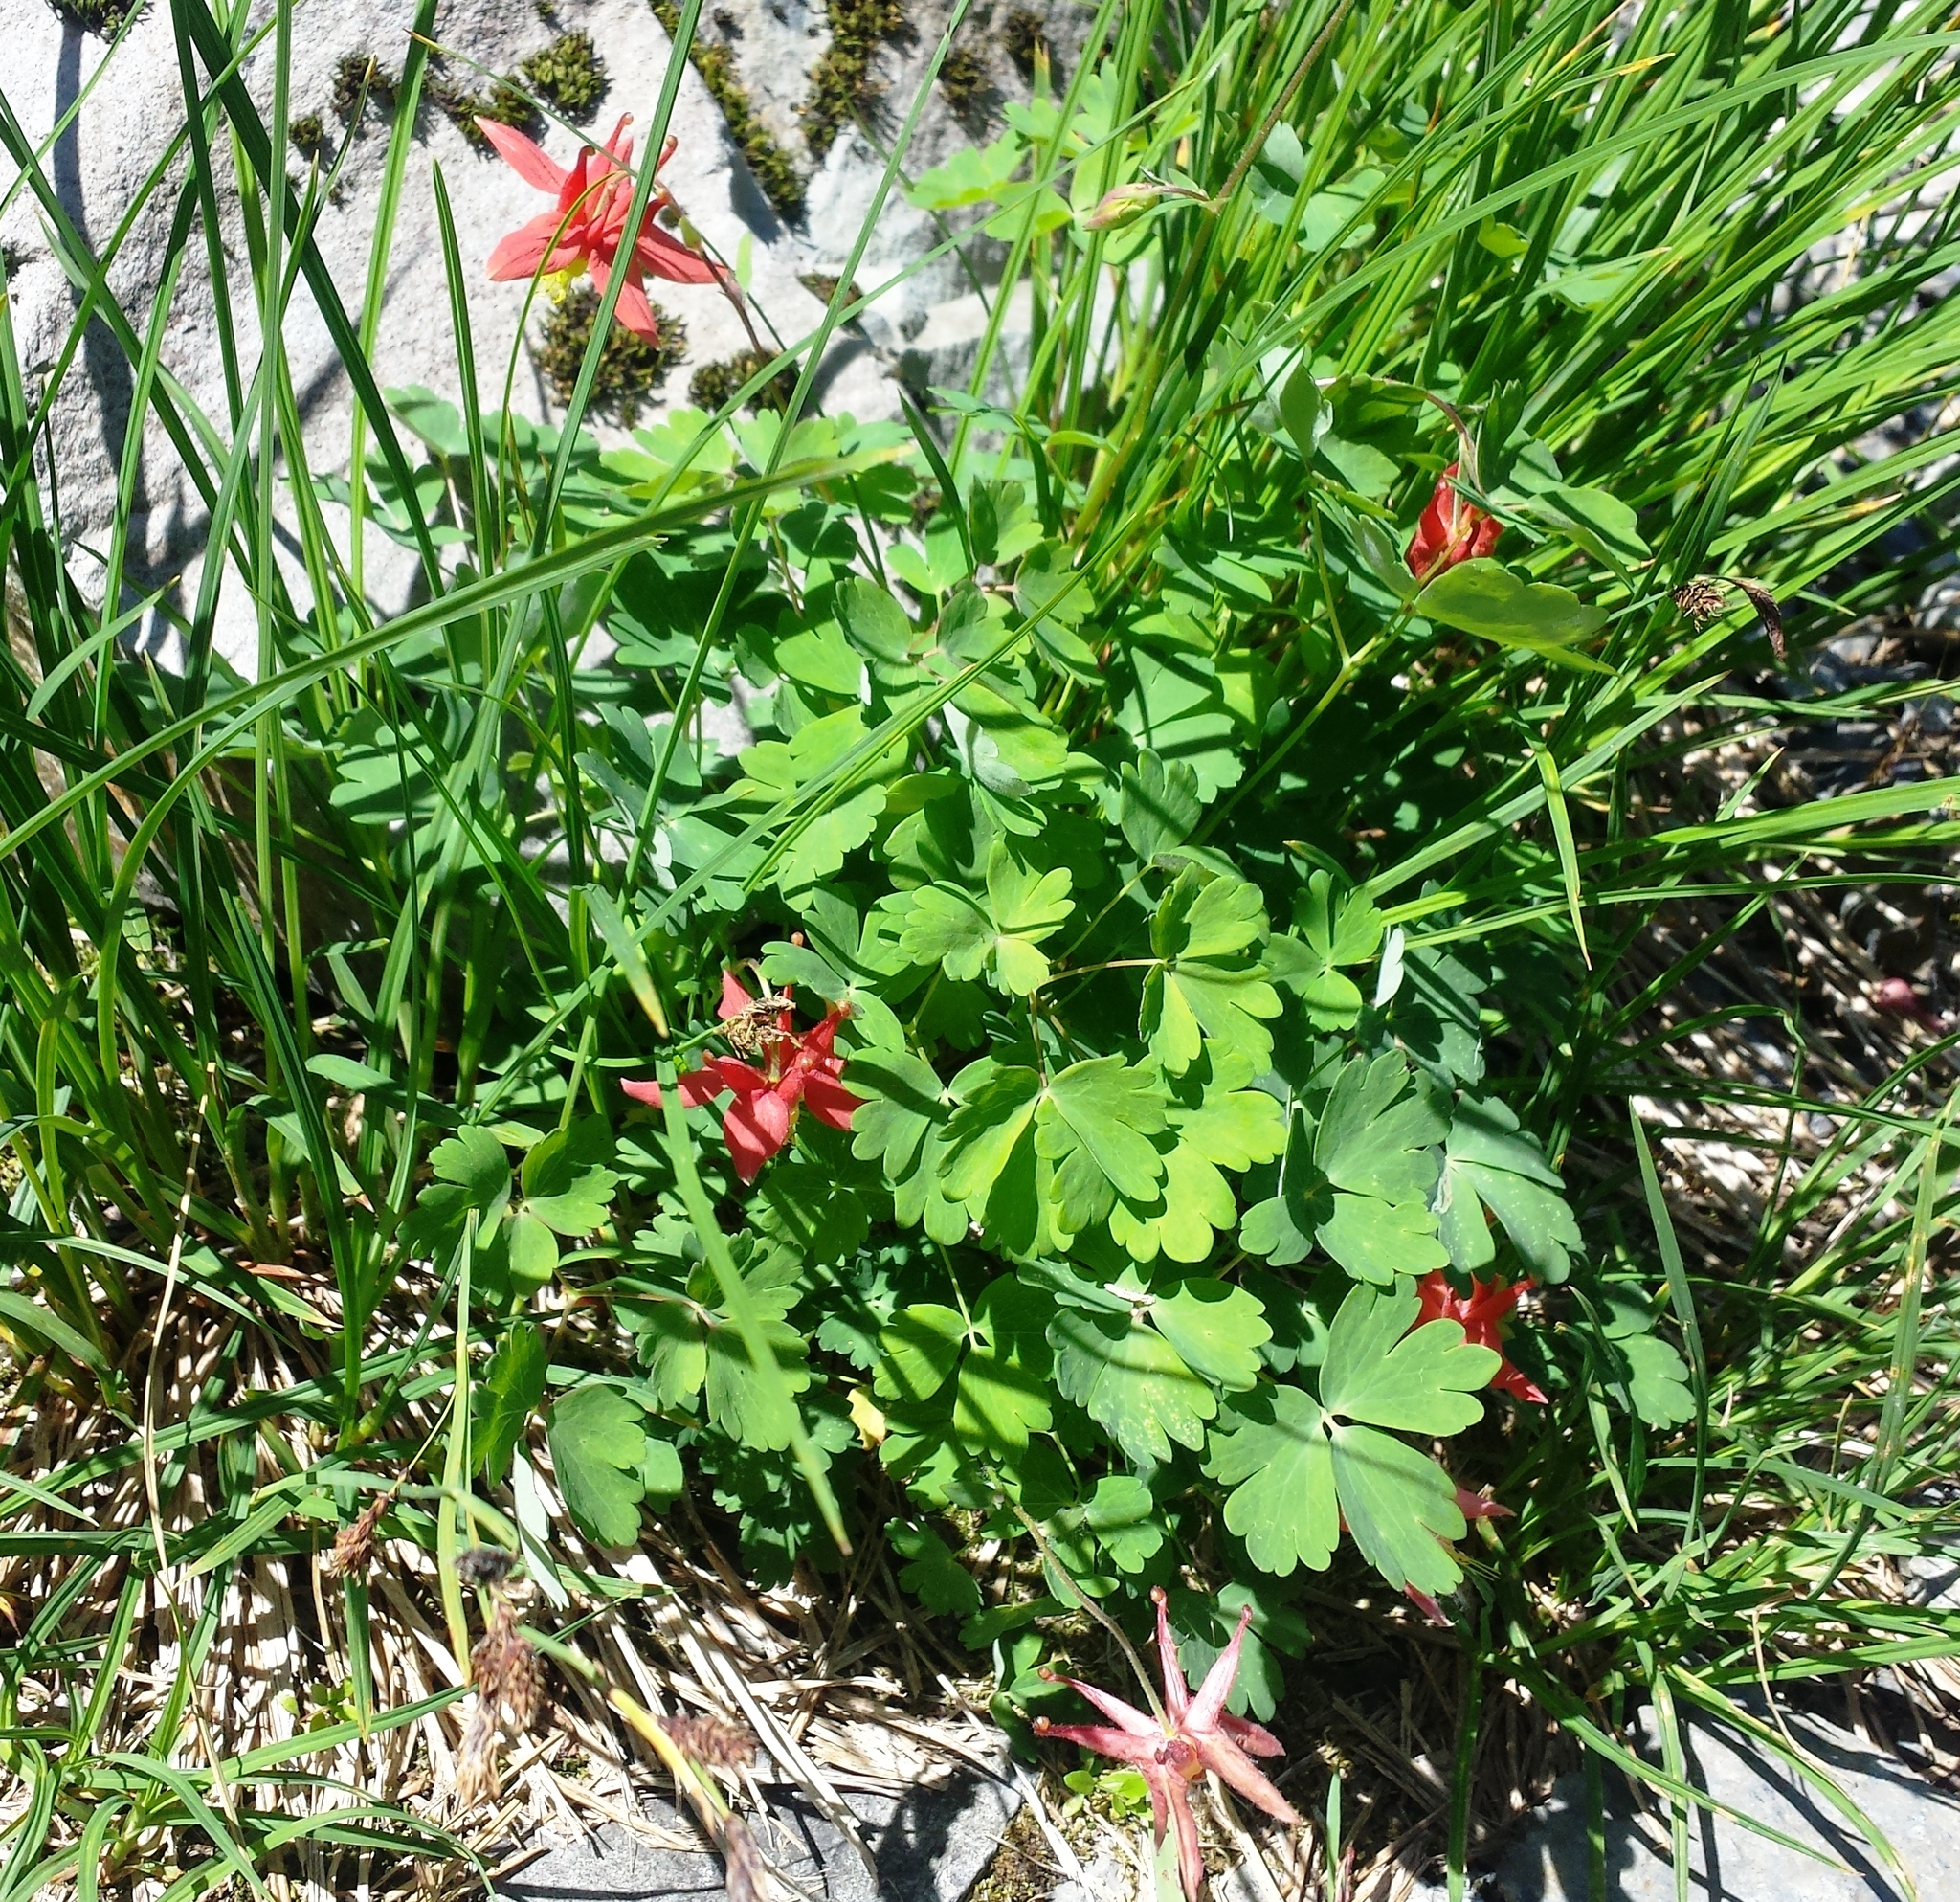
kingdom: Plantae
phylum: Tracheophyta
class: Magnoliopsida
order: Ranunculales
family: Ranunculaceae
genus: Aquilegia
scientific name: Aquilegia formosa
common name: Sitka columbine
